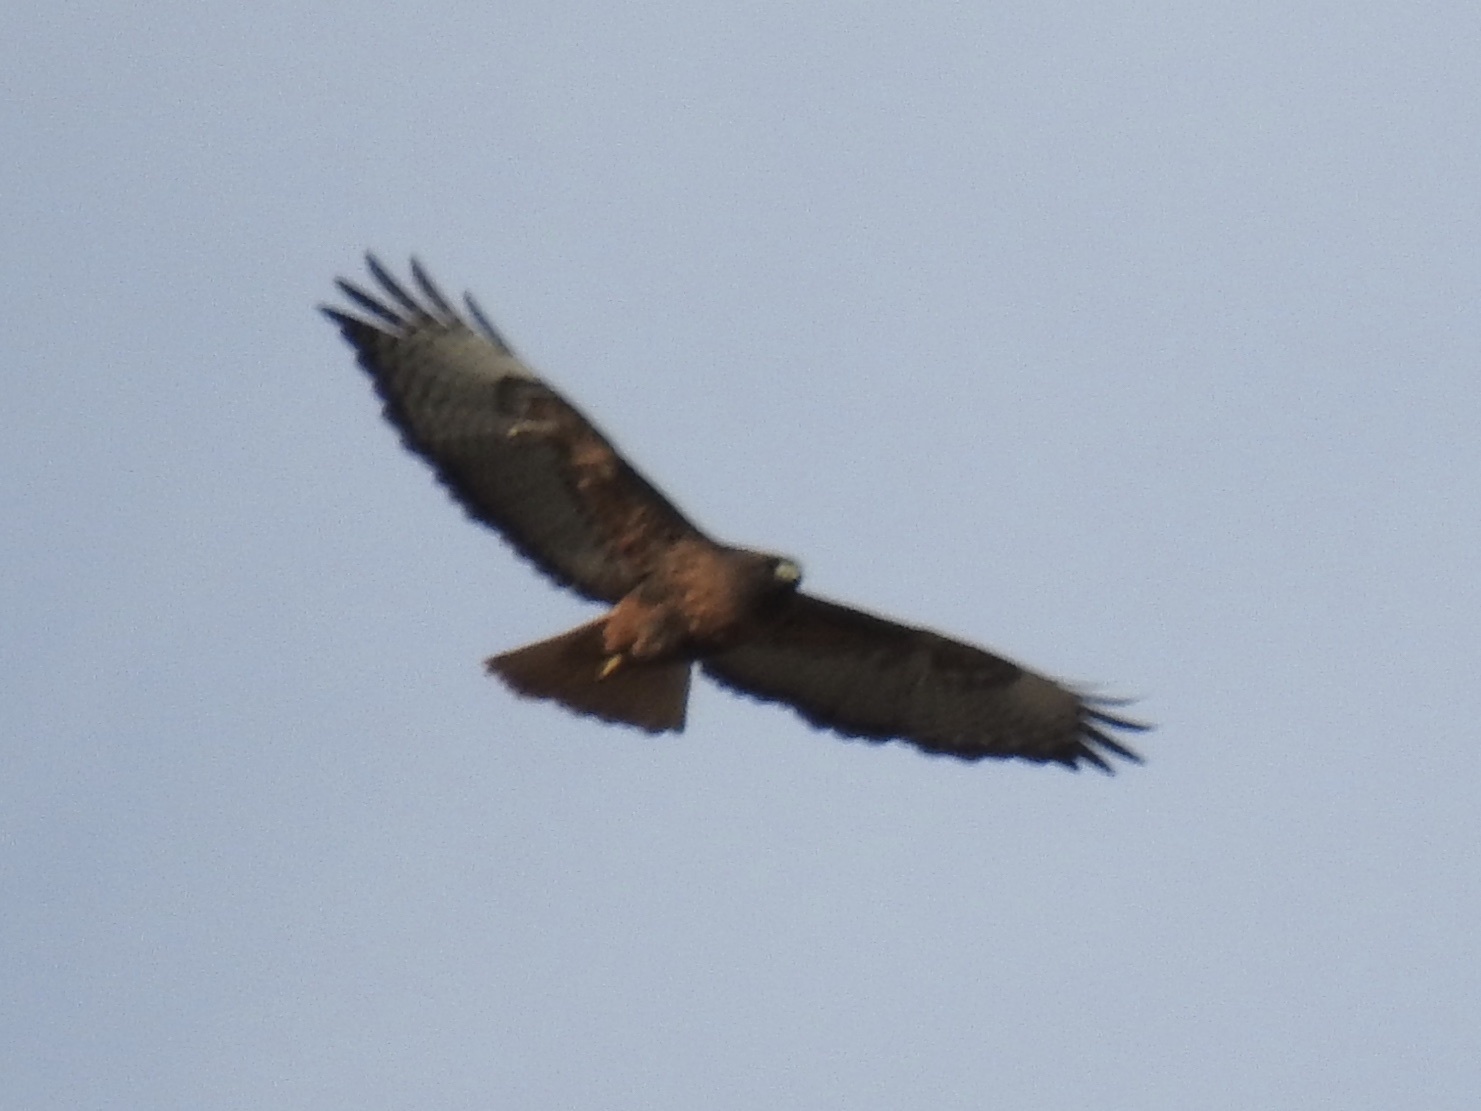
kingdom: Animalia
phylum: Chordata
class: Aves
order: Accipitriformes
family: Accipitridae
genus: Buteo
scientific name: Buteo jamaicensis
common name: Red-tailed hawk
